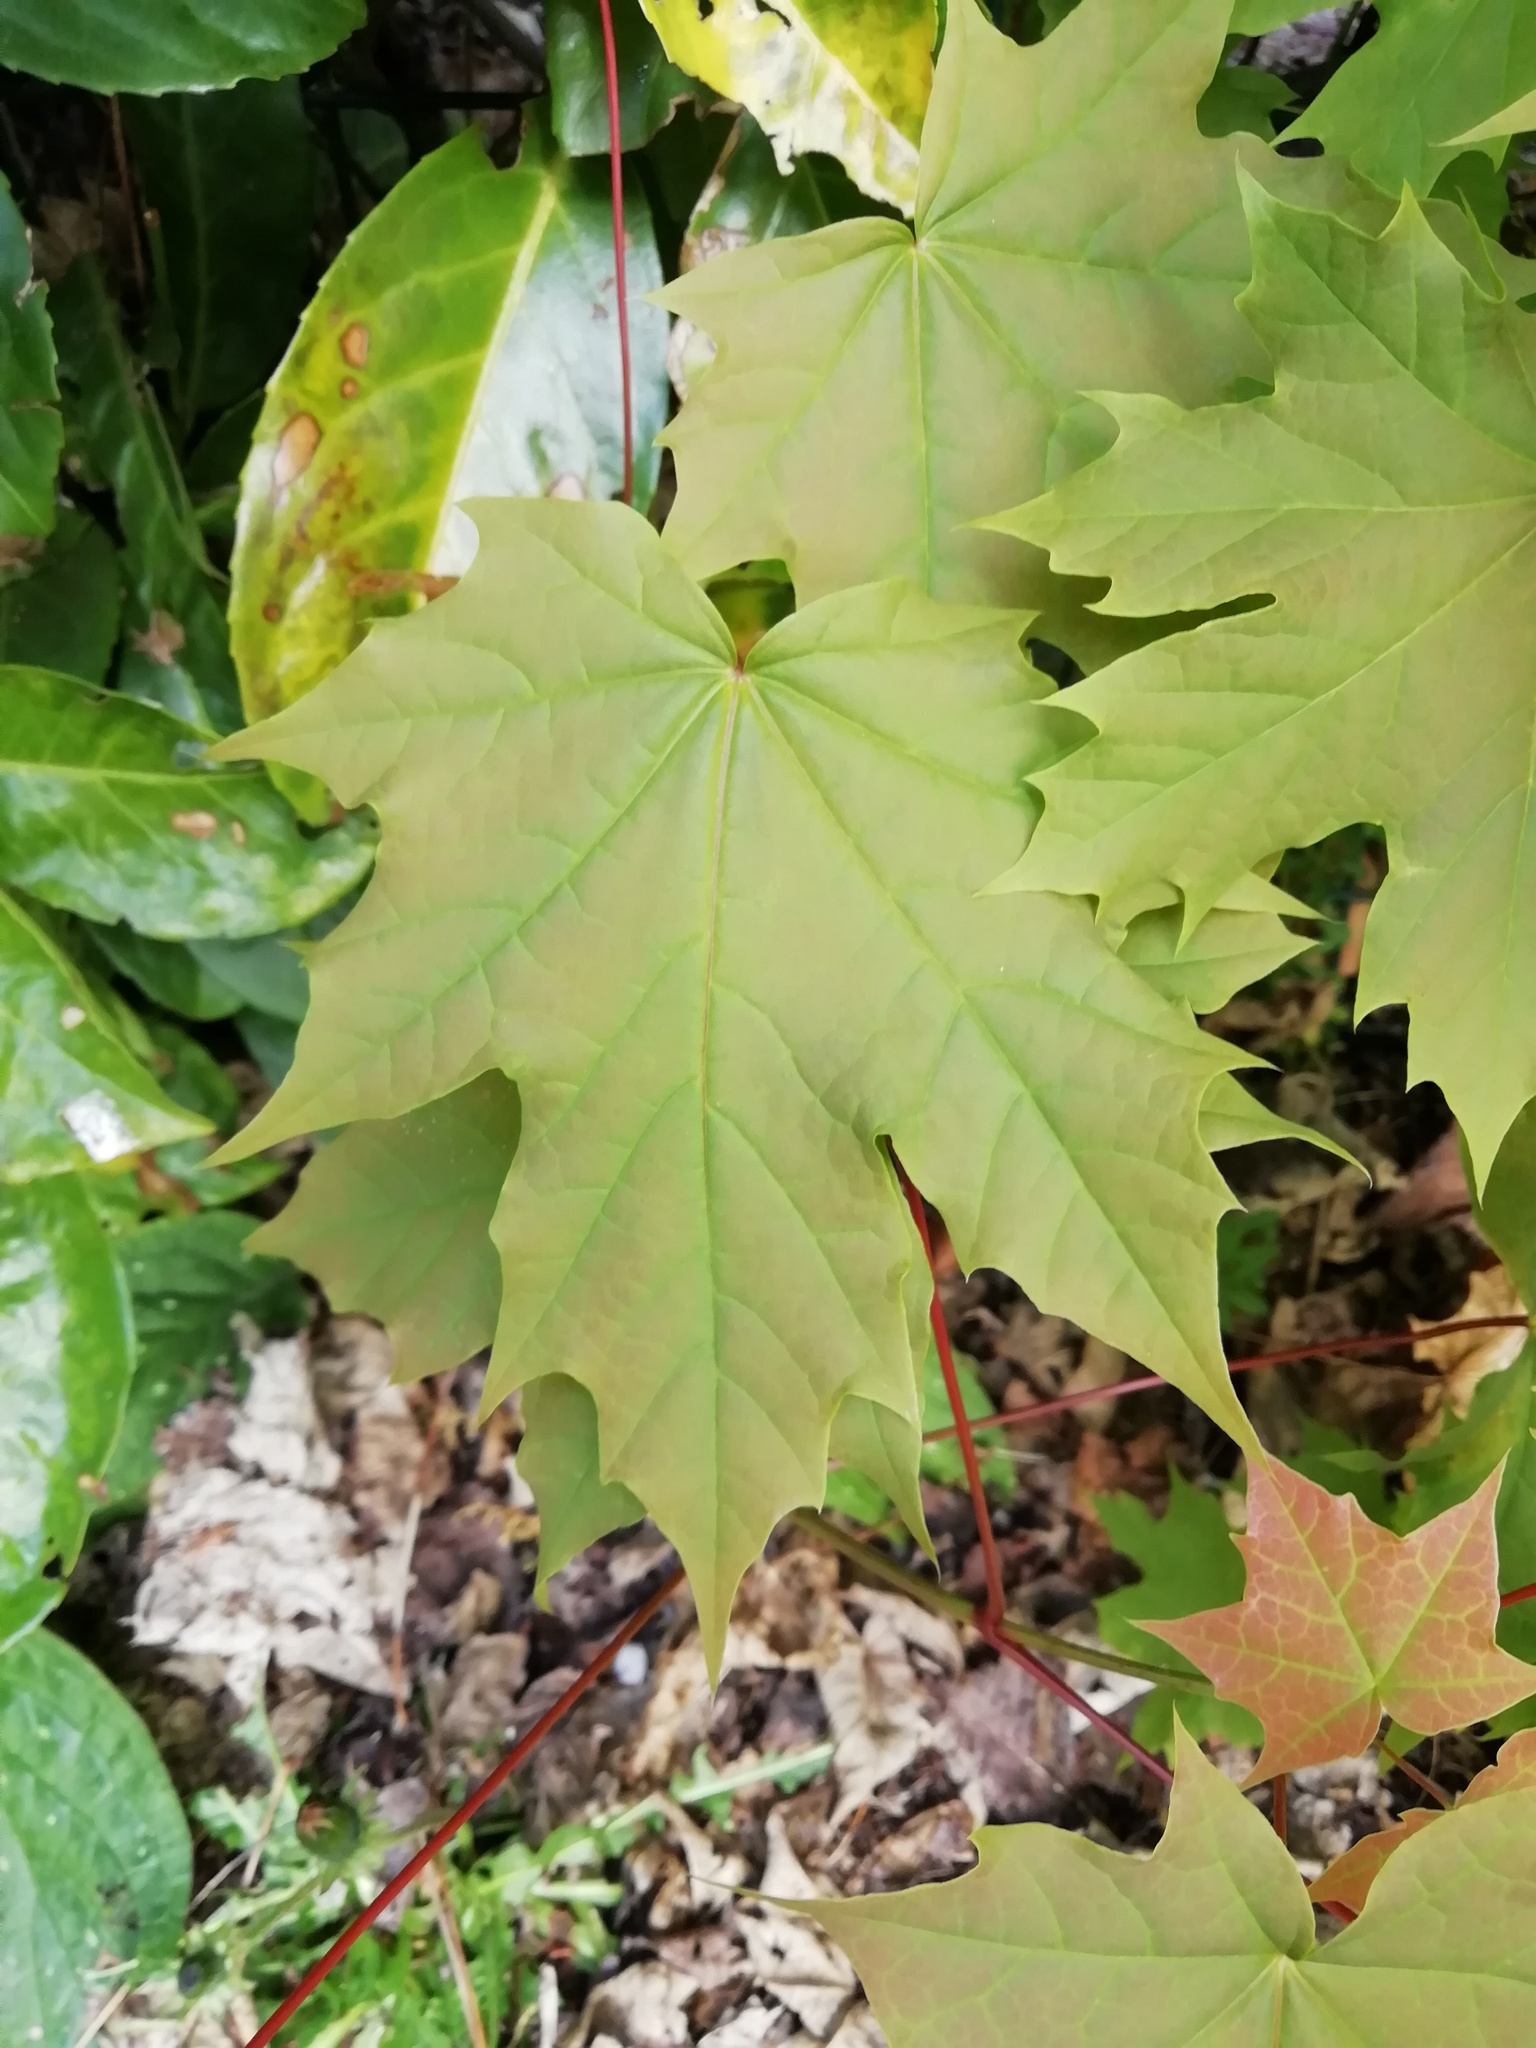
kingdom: Plantae
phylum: Tracheophyta
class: Magnoliopsida
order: Sapindales
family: Sapindaceae
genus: Acer
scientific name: Acer platanoides
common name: Norway maple
